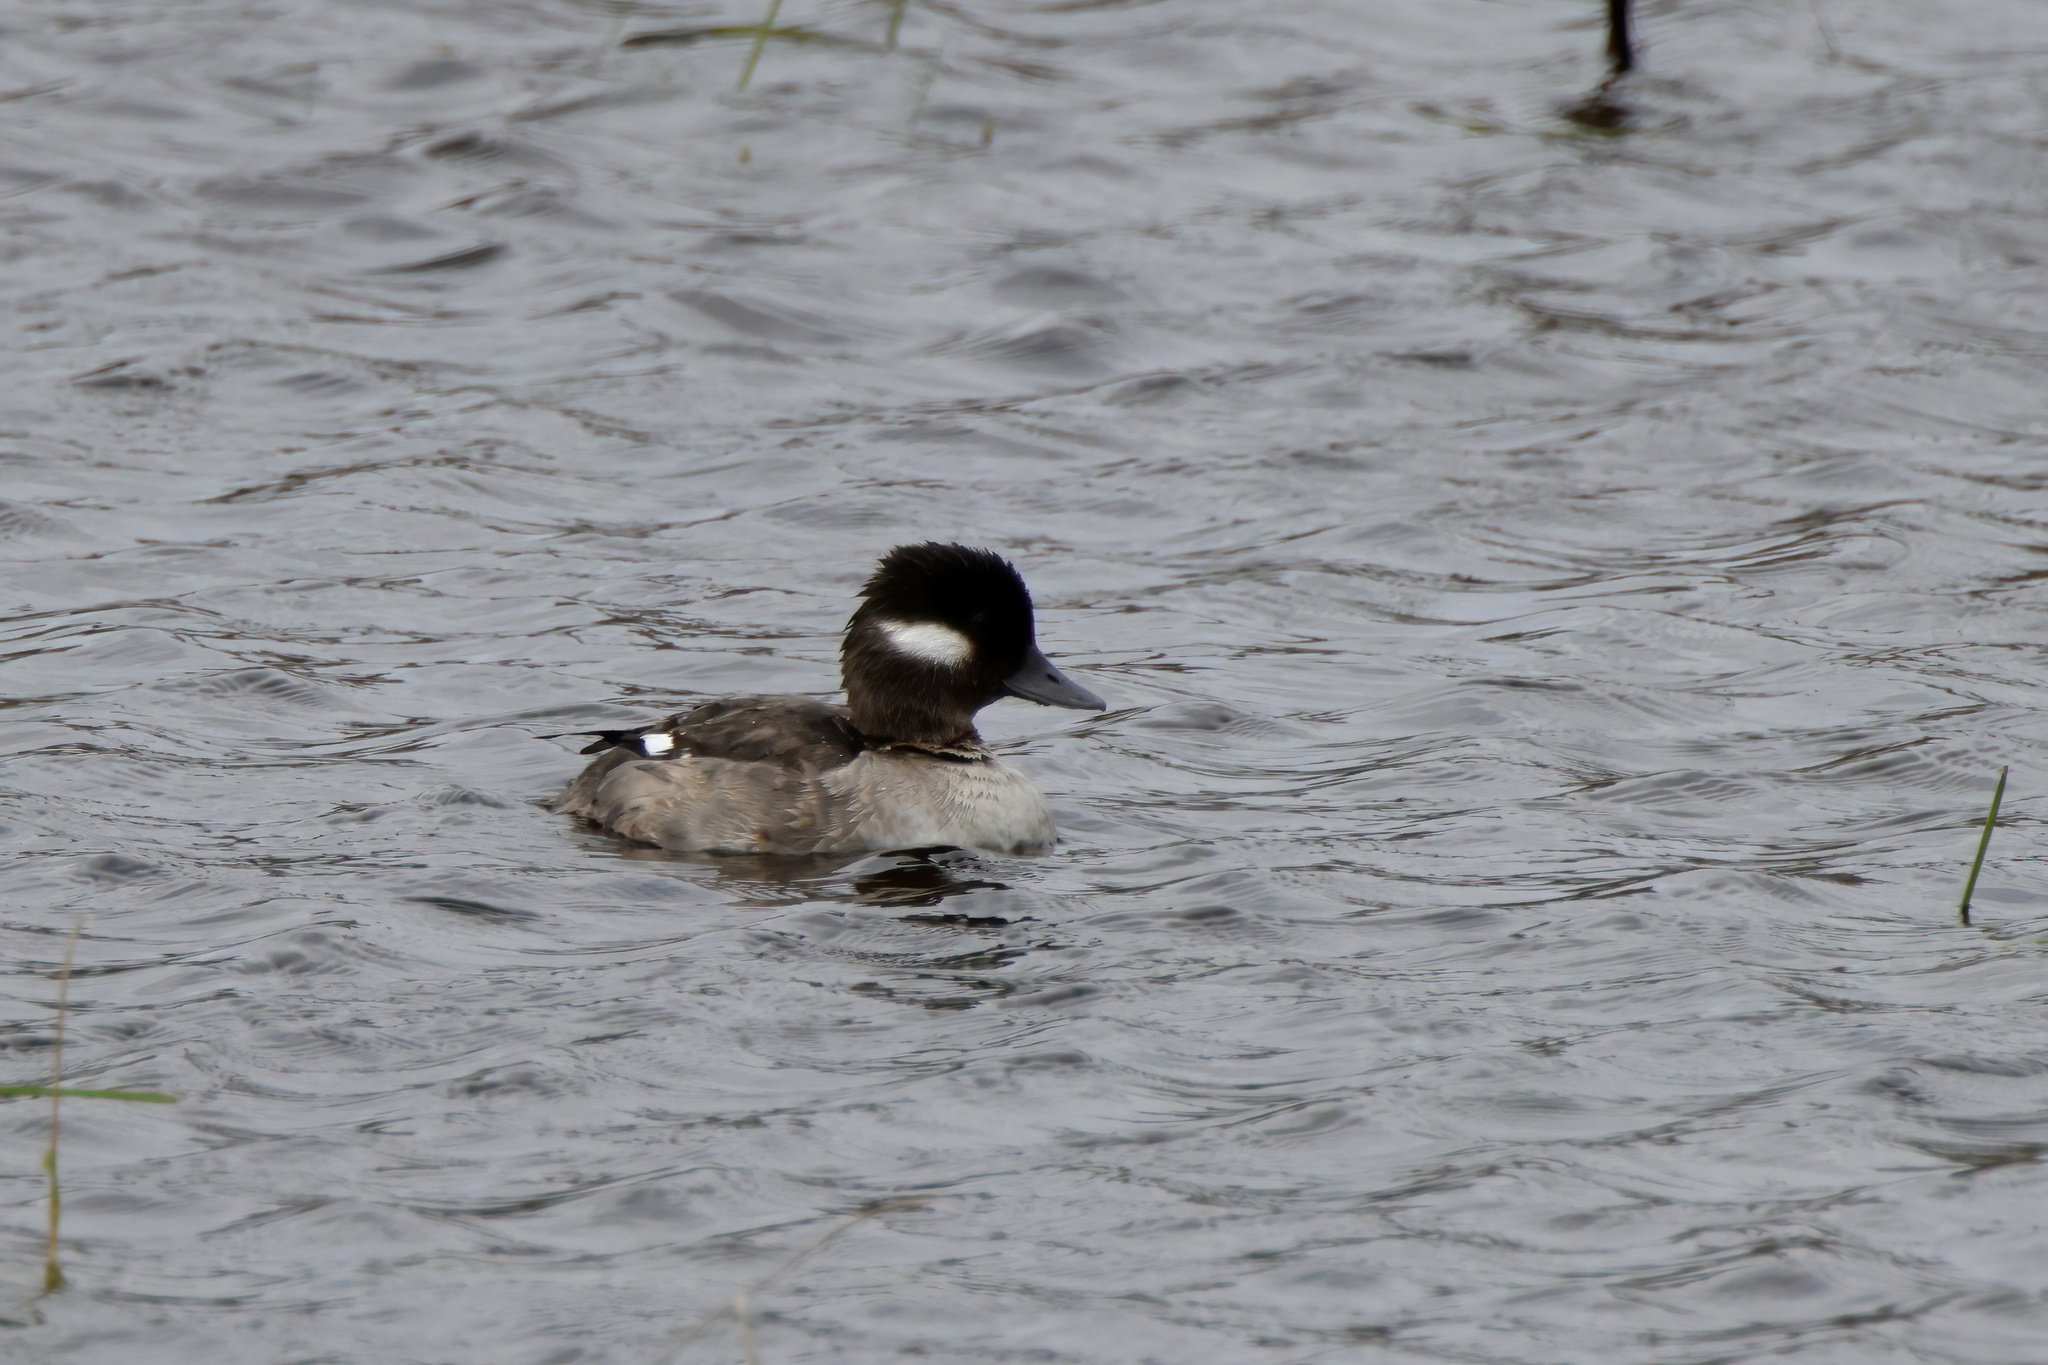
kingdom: Animalia
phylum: Chordata
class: Aves
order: Anseriformes
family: Anatidae
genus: Bucephala
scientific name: Bucephala albeola
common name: Bufflehead
